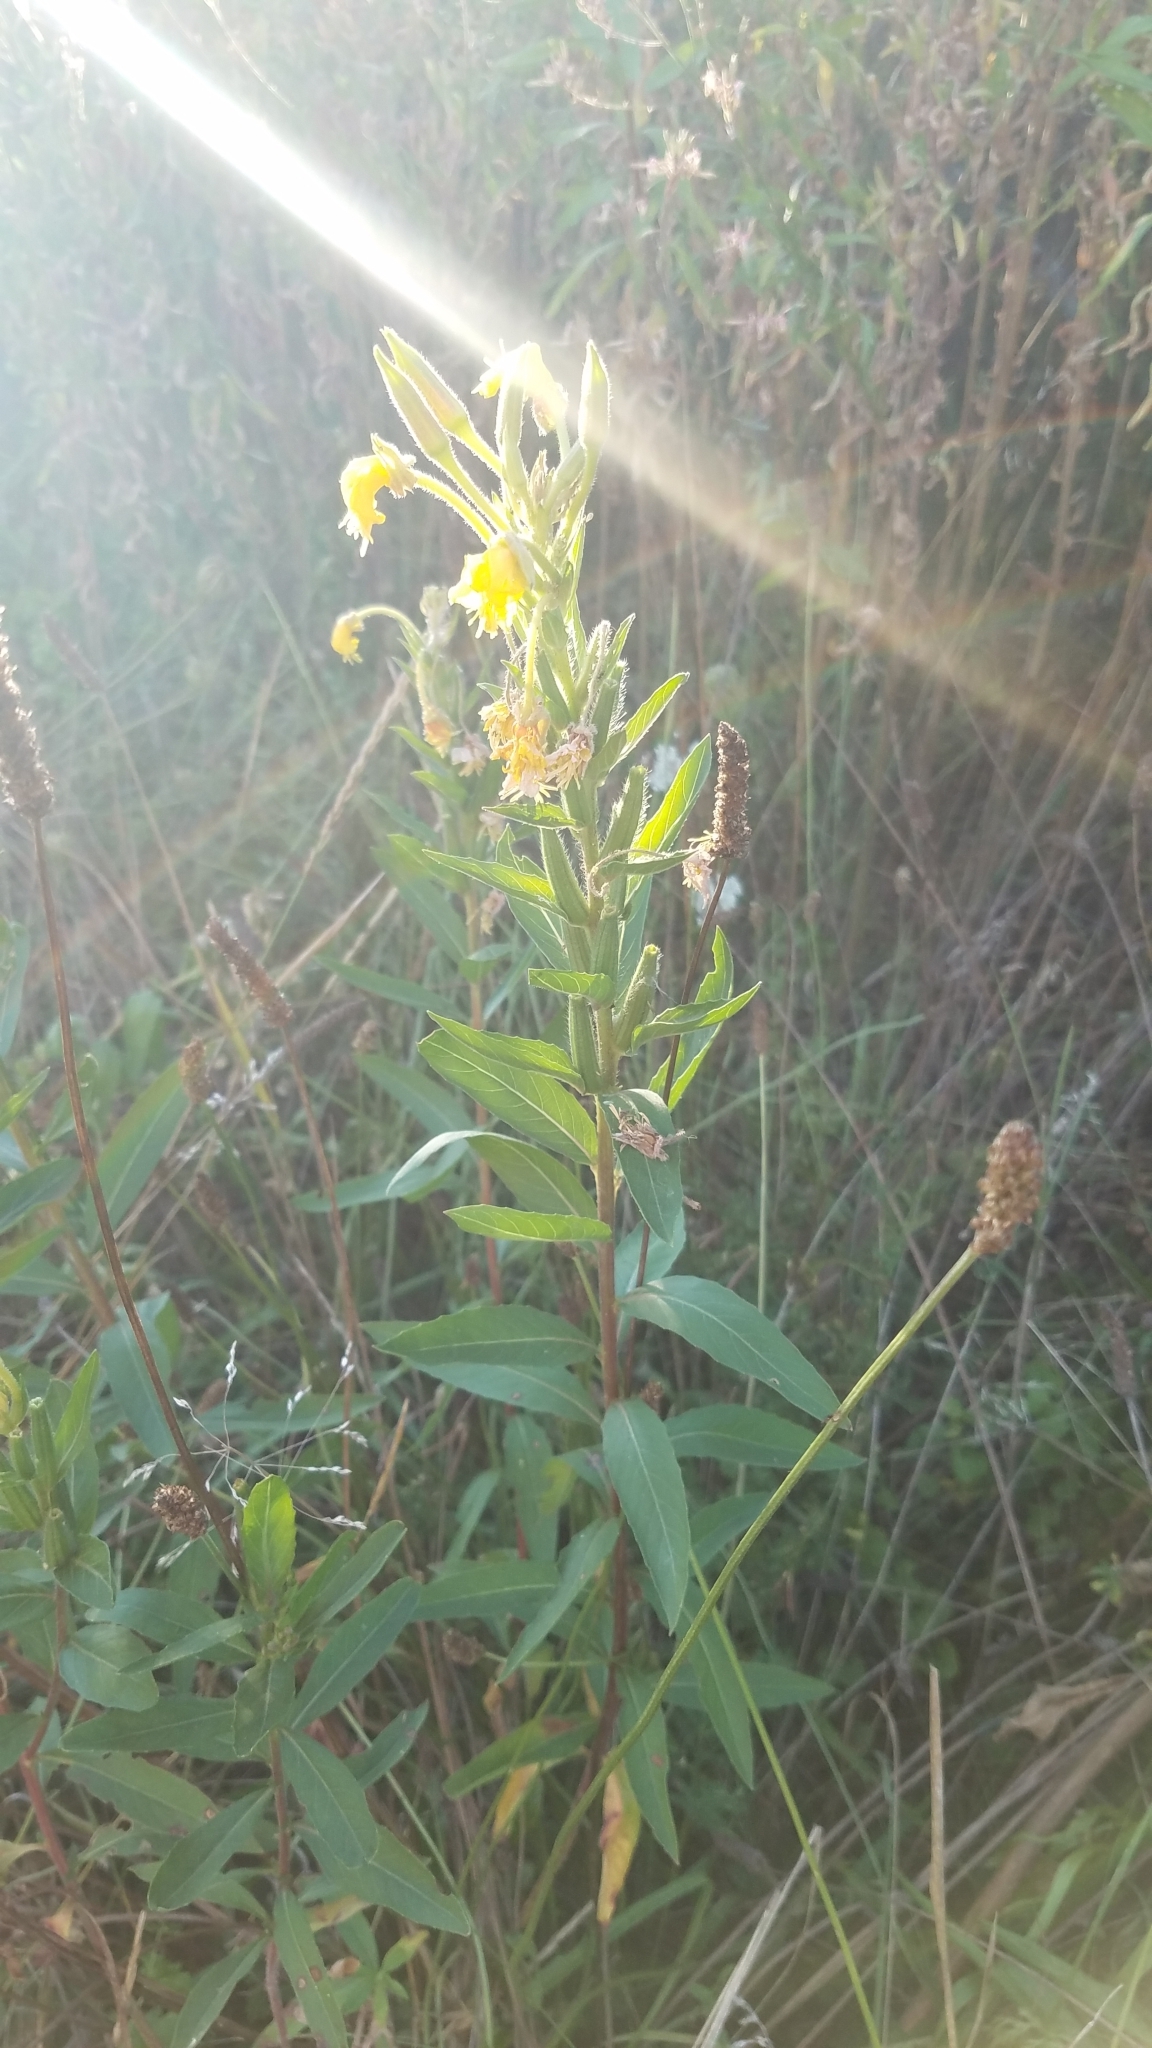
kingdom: Plantae
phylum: Tracheophyta
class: Magnoliopsida
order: Myrtales
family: Onagraceae
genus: Oenothera
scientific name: Oenothera biennis
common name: Common evening-primrose
